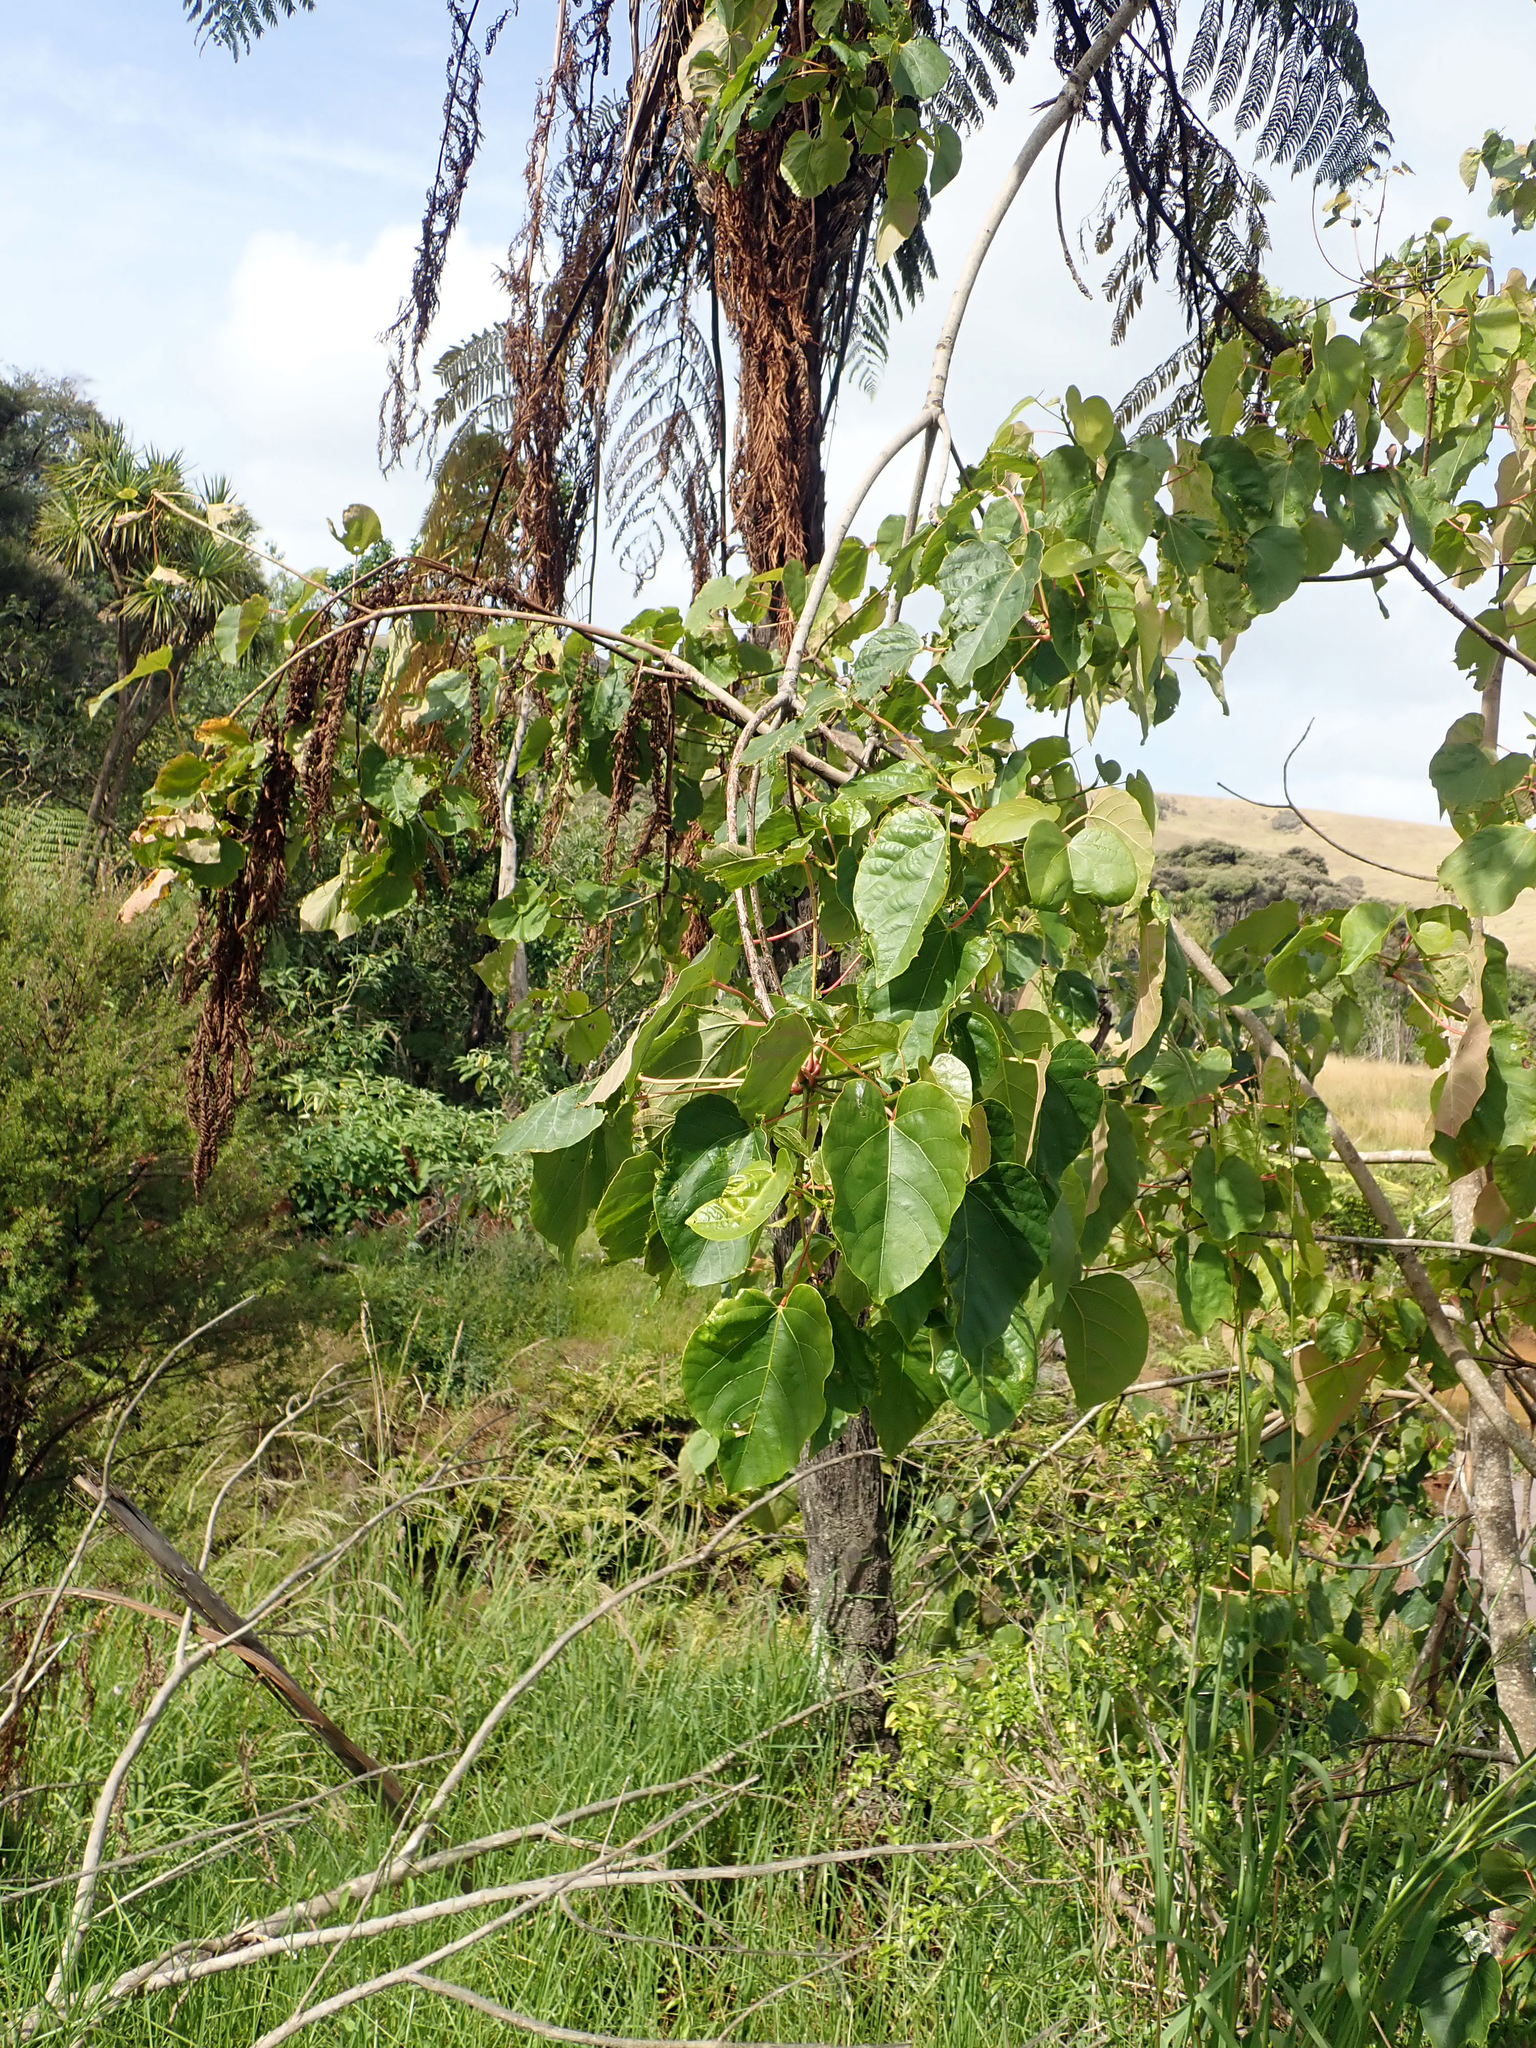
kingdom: Plantae
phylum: Tracheophyta
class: Magnoliopsida
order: Malpighiales
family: Euphorbiaceae
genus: Vernicia
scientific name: Vernicia fordii
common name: Tungoil tree
